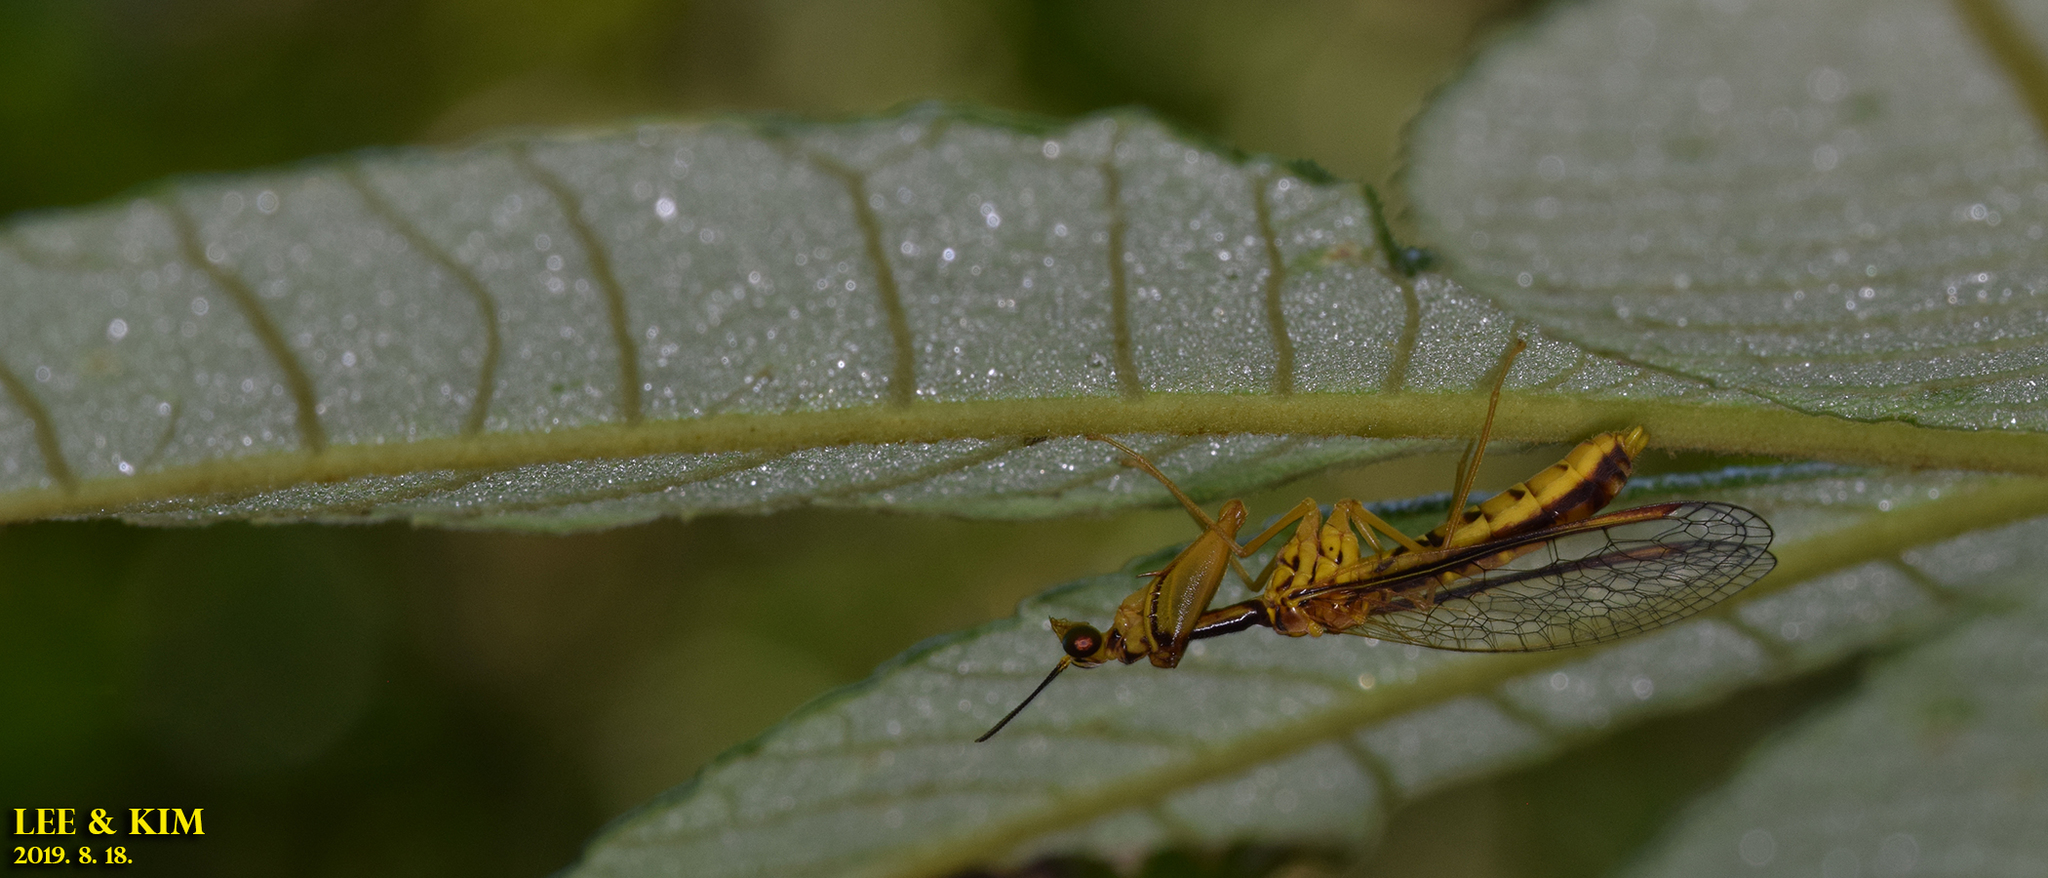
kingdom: Animalia
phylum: Arthropoda
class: Insecta
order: Neuroptera
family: Mantispidae
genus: Mantispa
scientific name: Mantispa japonica
